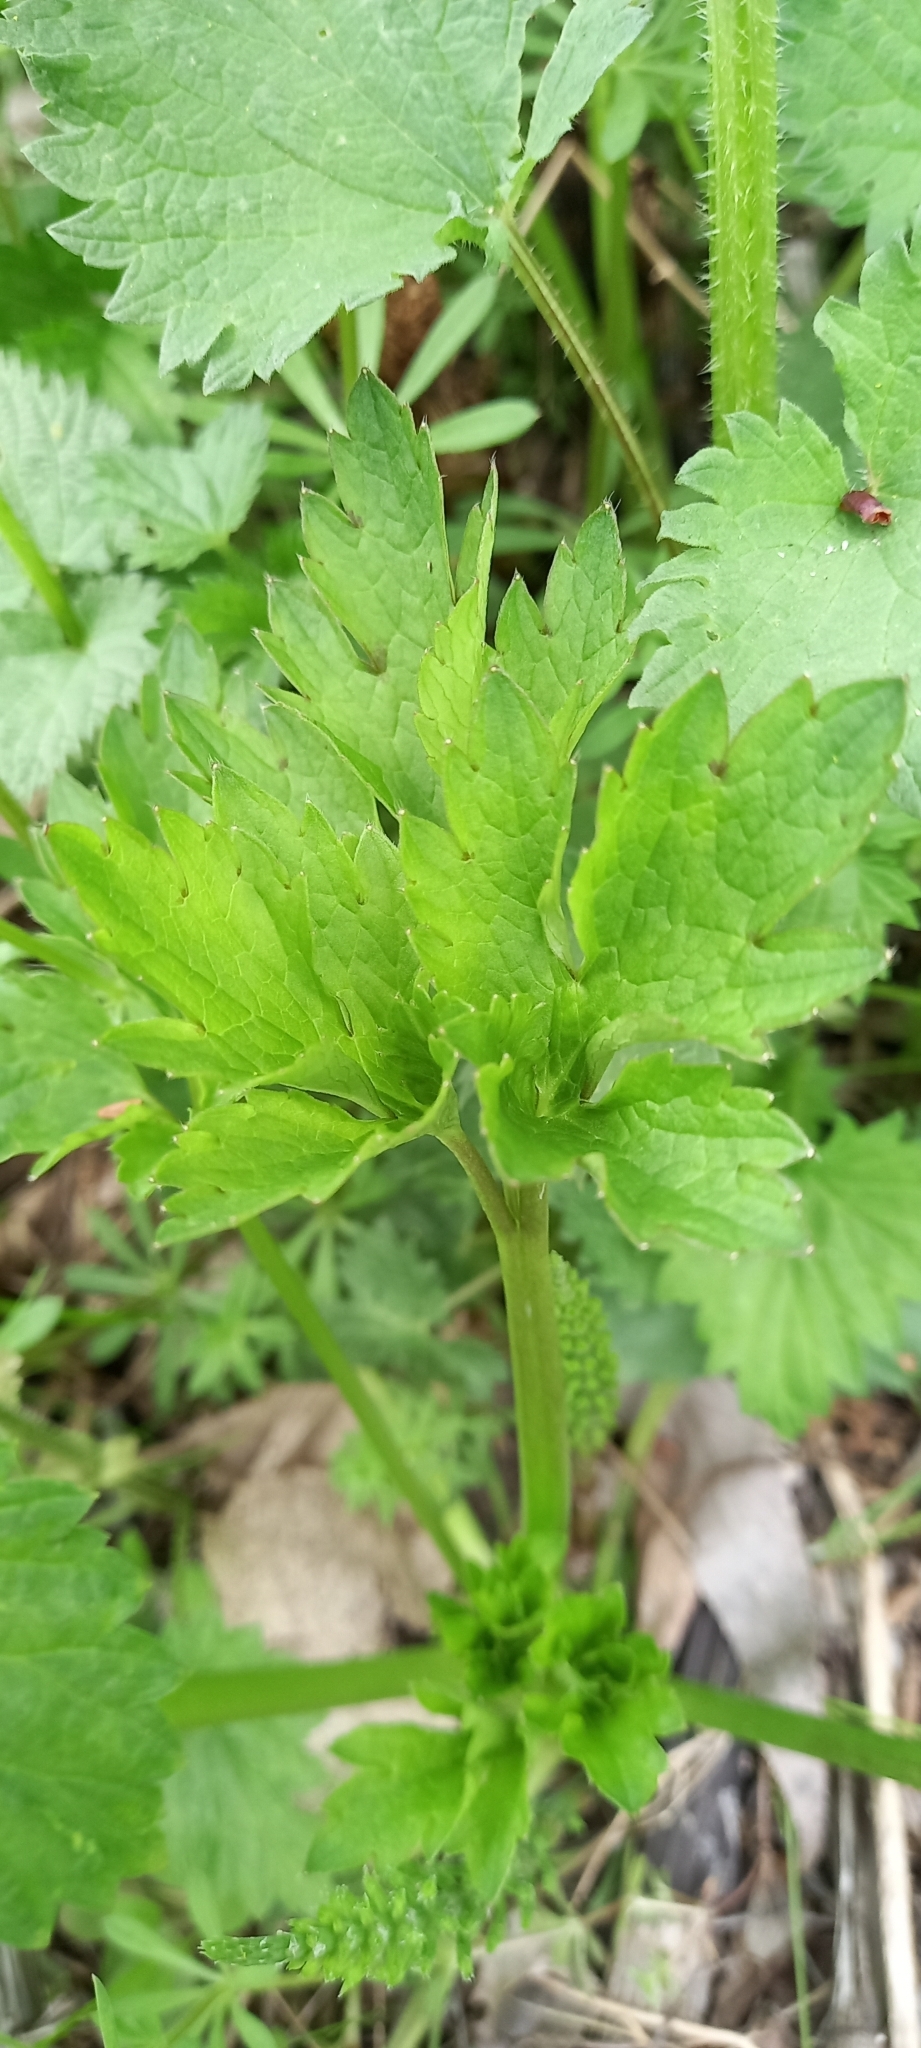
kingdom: Plantae
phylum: Tracheophyta
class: Magnoliopsida
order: Ranunculales
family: Ranunculaceae
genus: Ranunculus
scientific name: Ranunculus repens
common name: Creeping buttercup
